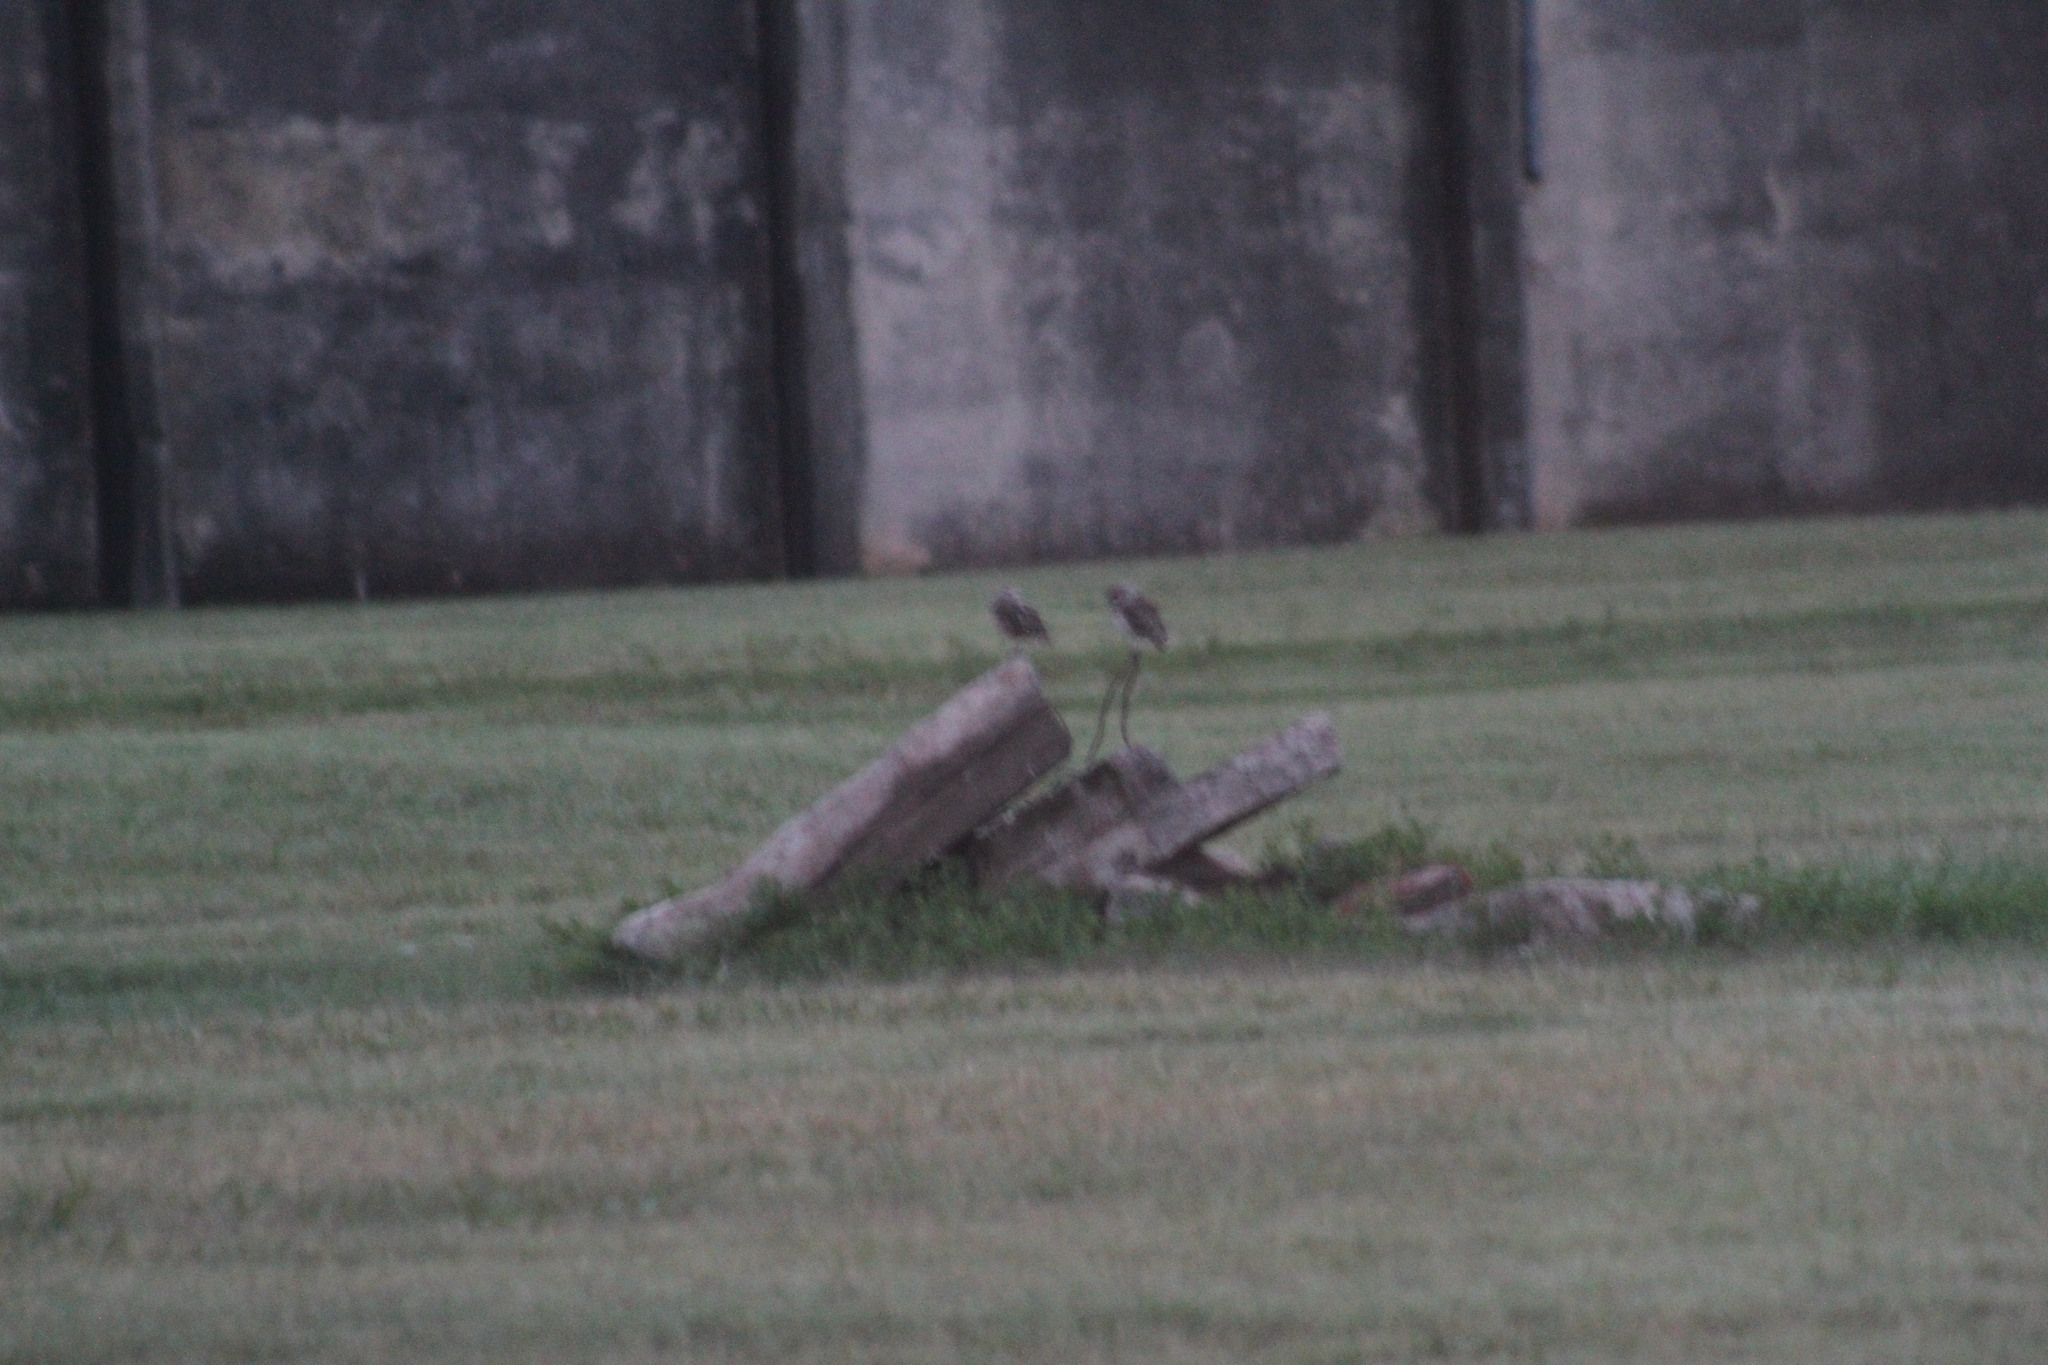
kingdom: Animalia
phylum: Chordata
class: Aves
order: Strigiformes
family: Strigidae
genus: Athene
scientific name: Athene cunicularia
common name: Burrowing owl
